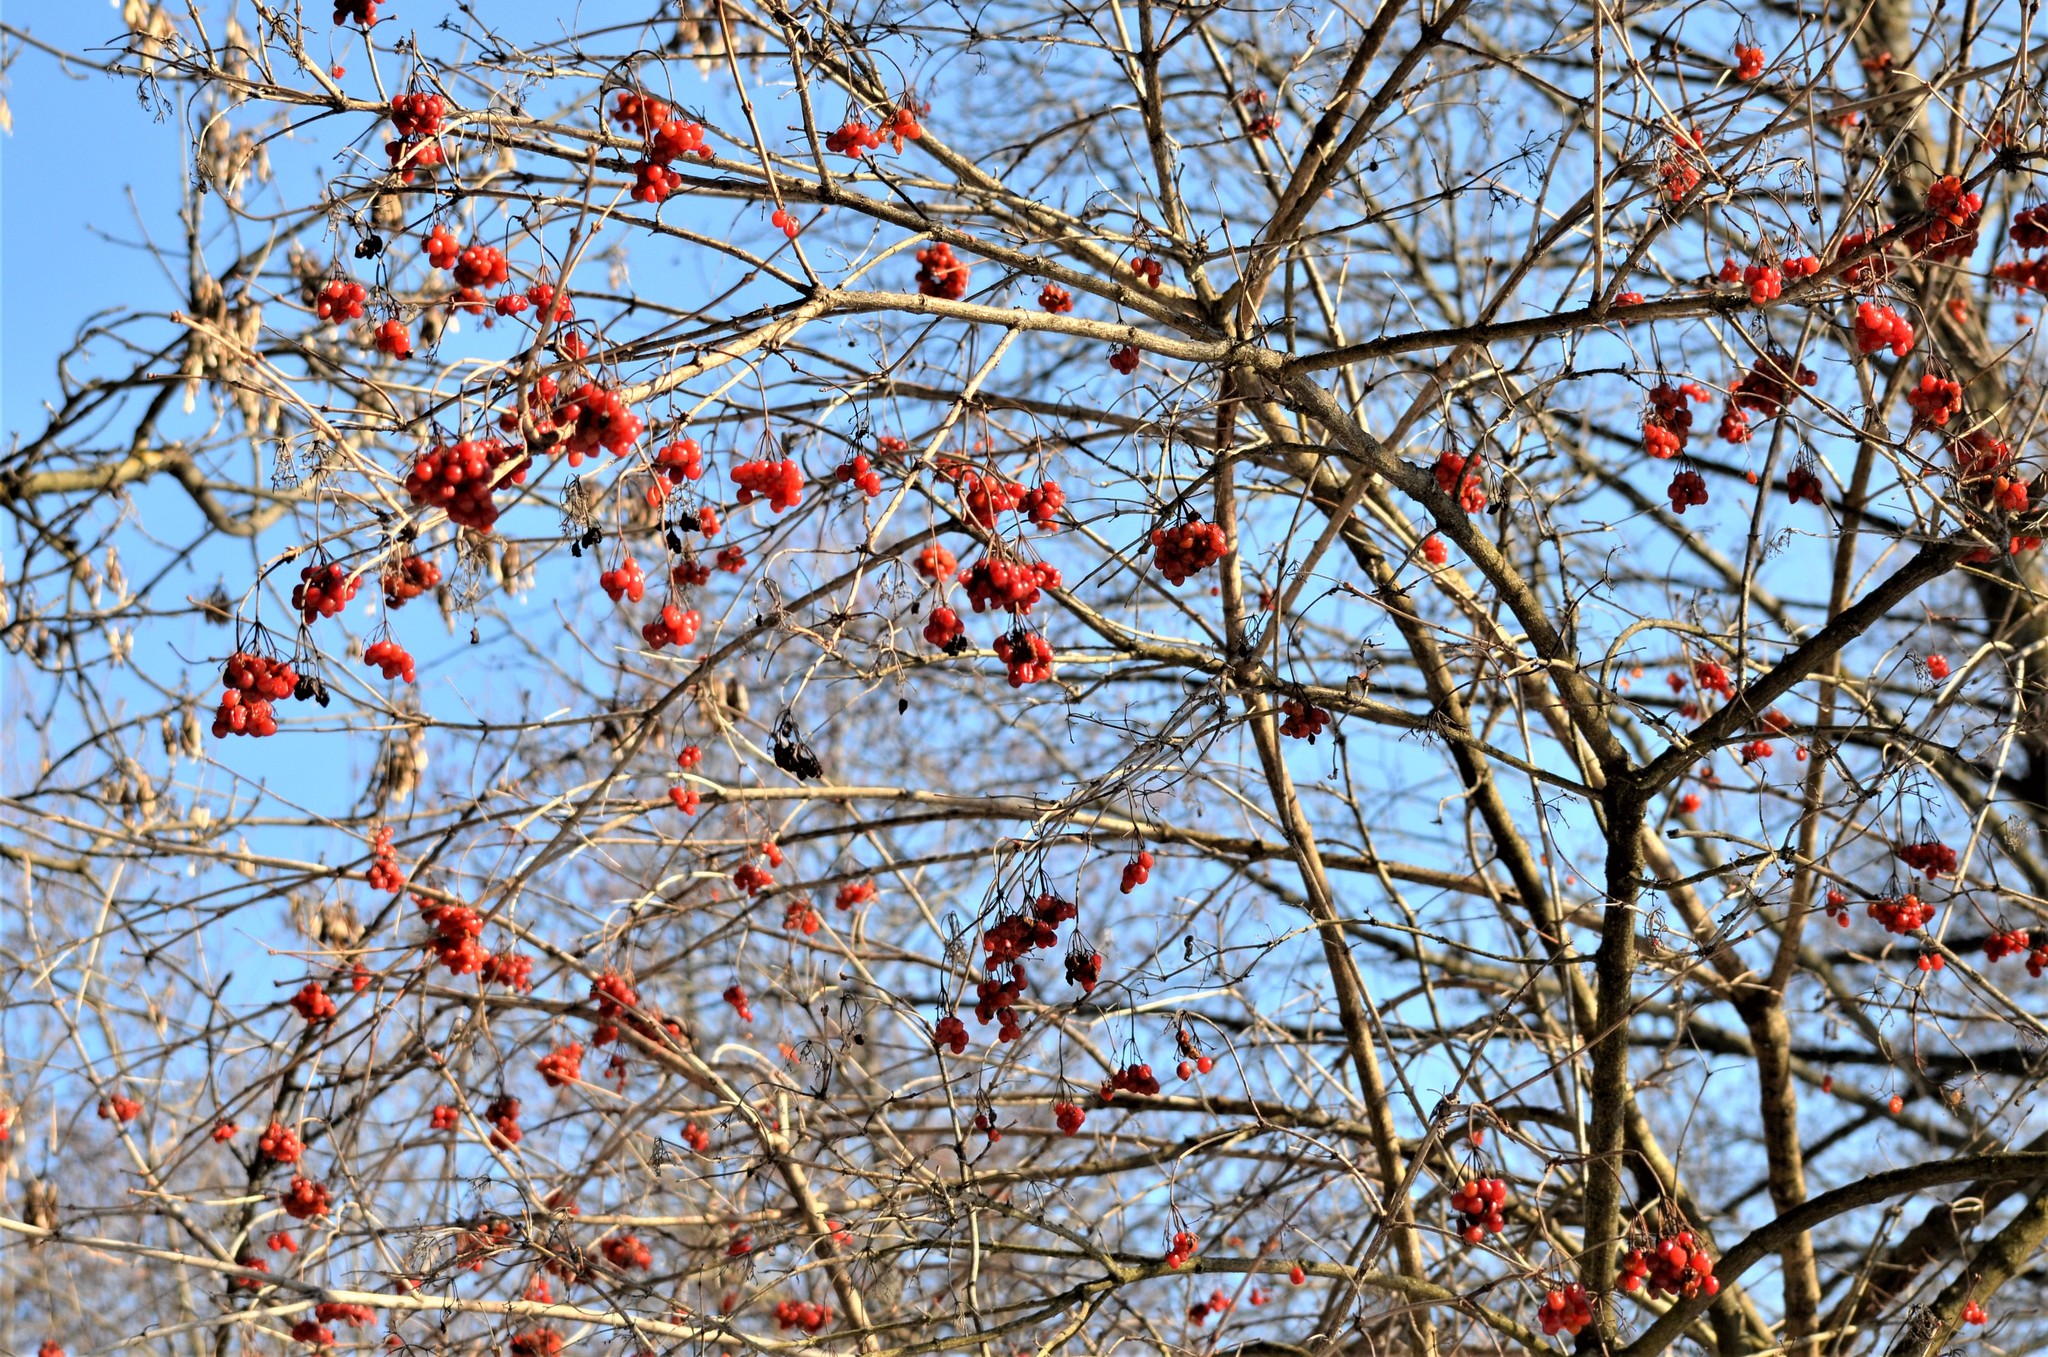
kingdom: Plantae
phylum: Tracheophyta
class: Magnoliopsida
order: Dipsacales
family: Viburnaceae
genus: Viburnum
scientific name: Viburnum opulus
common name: Guelder-rose
